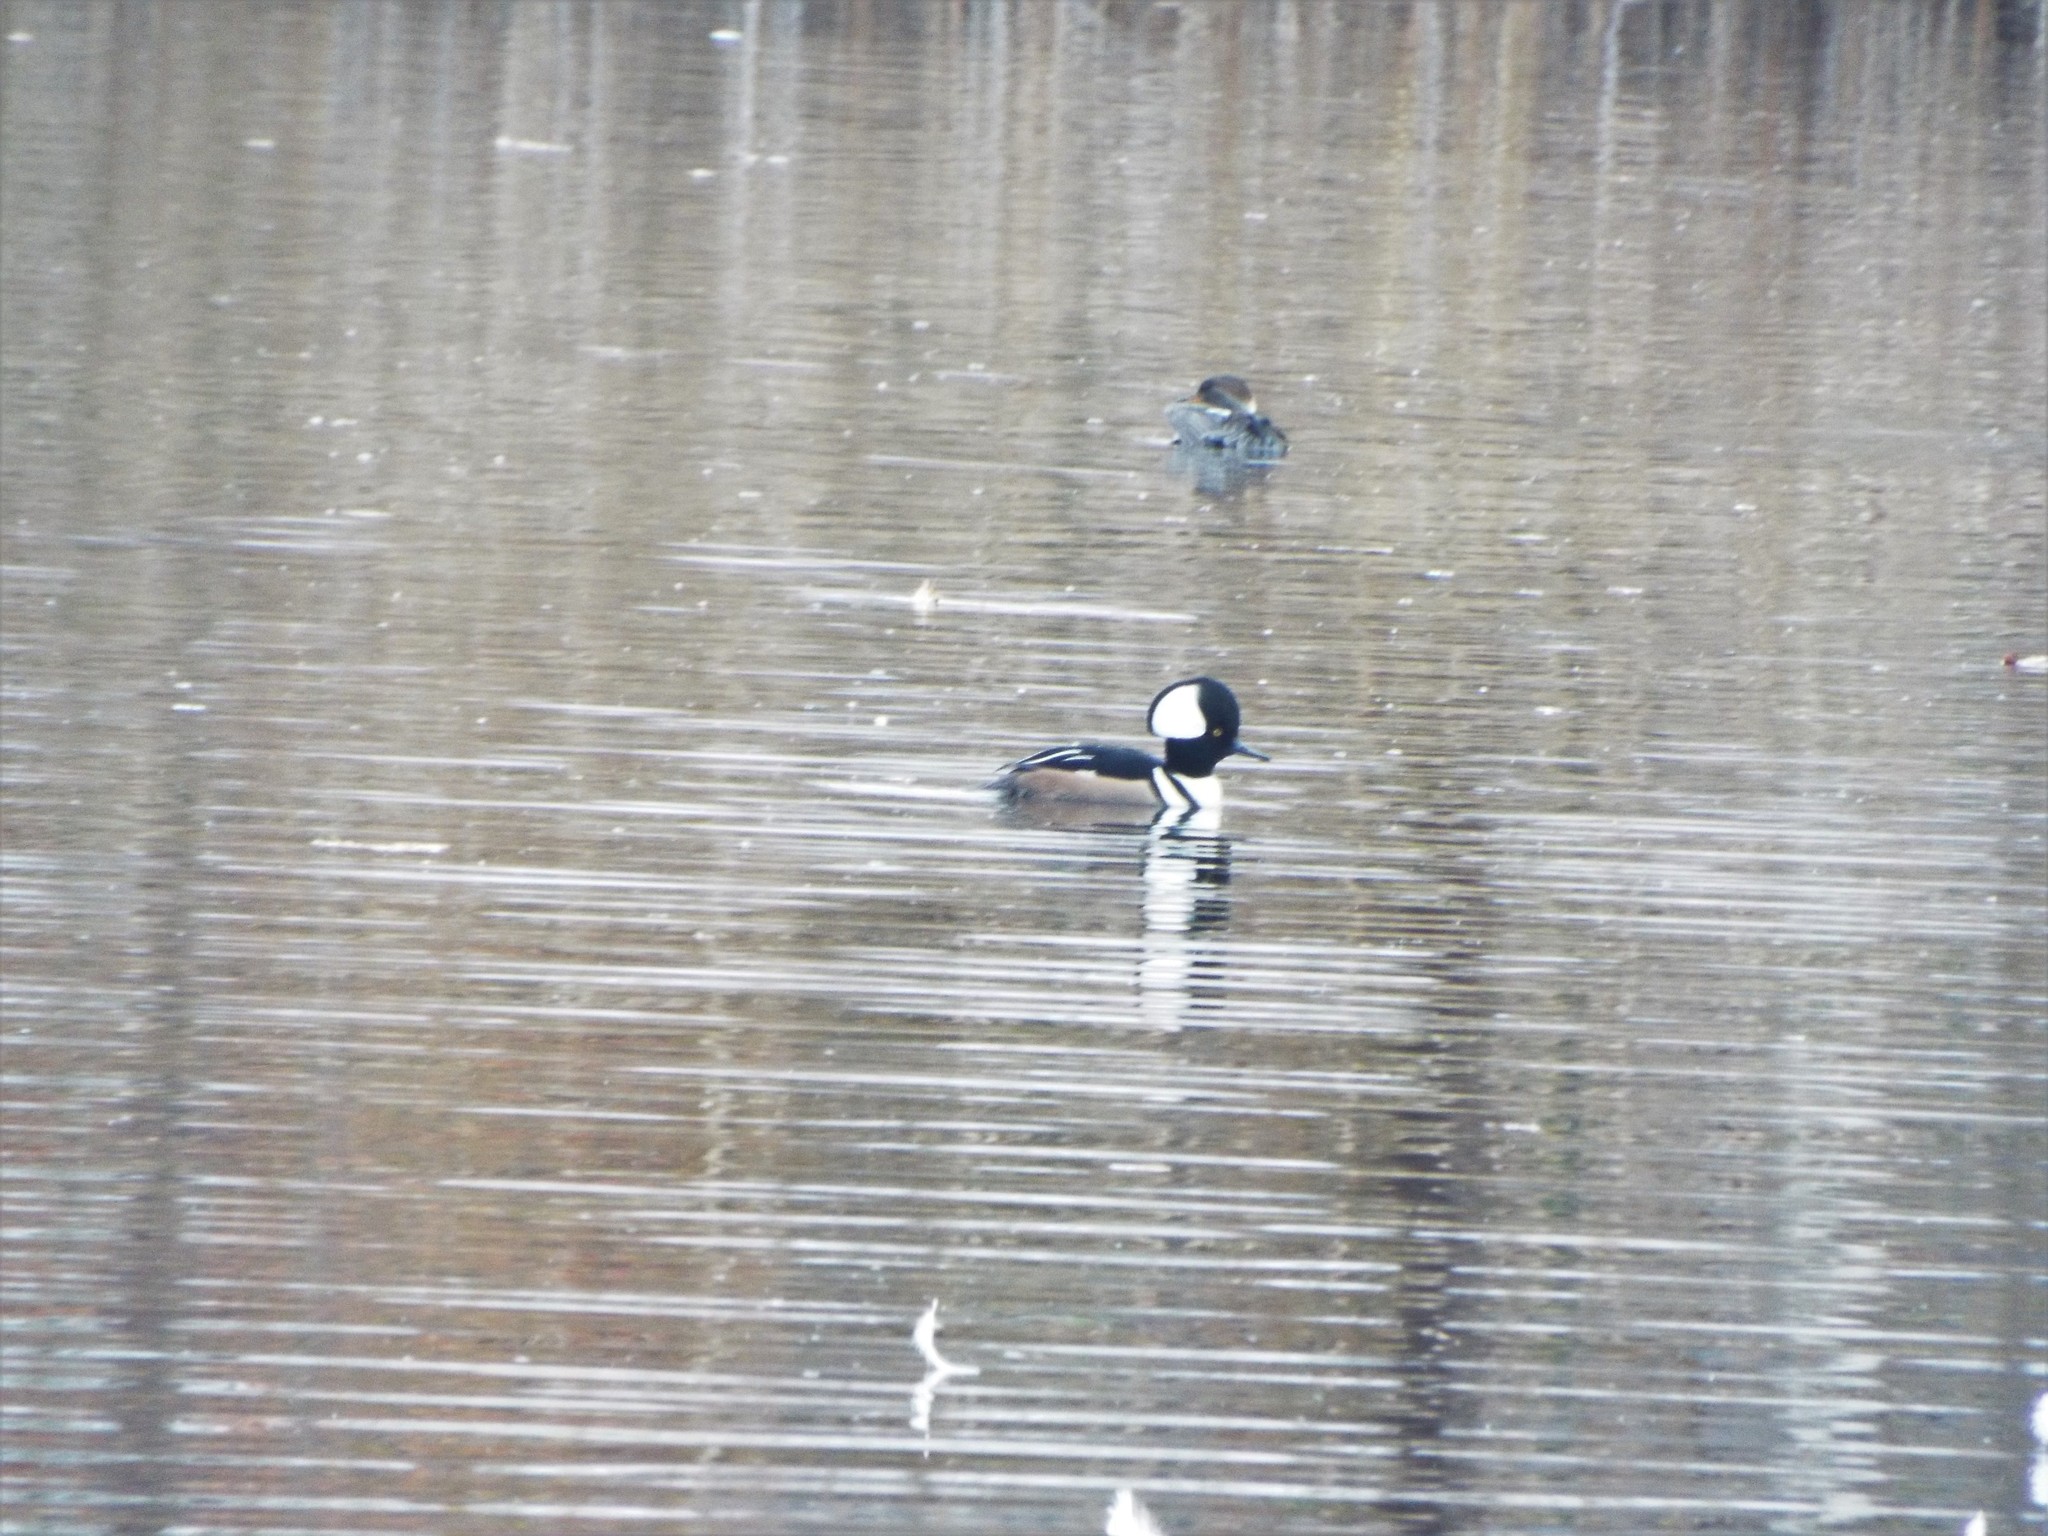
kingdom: Animalia
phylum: Chordata
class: Aves
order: Anseriformes
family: Anatidae
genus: Lophodytes
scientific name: Lophodytes cucullatus
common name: Hooded merganser
